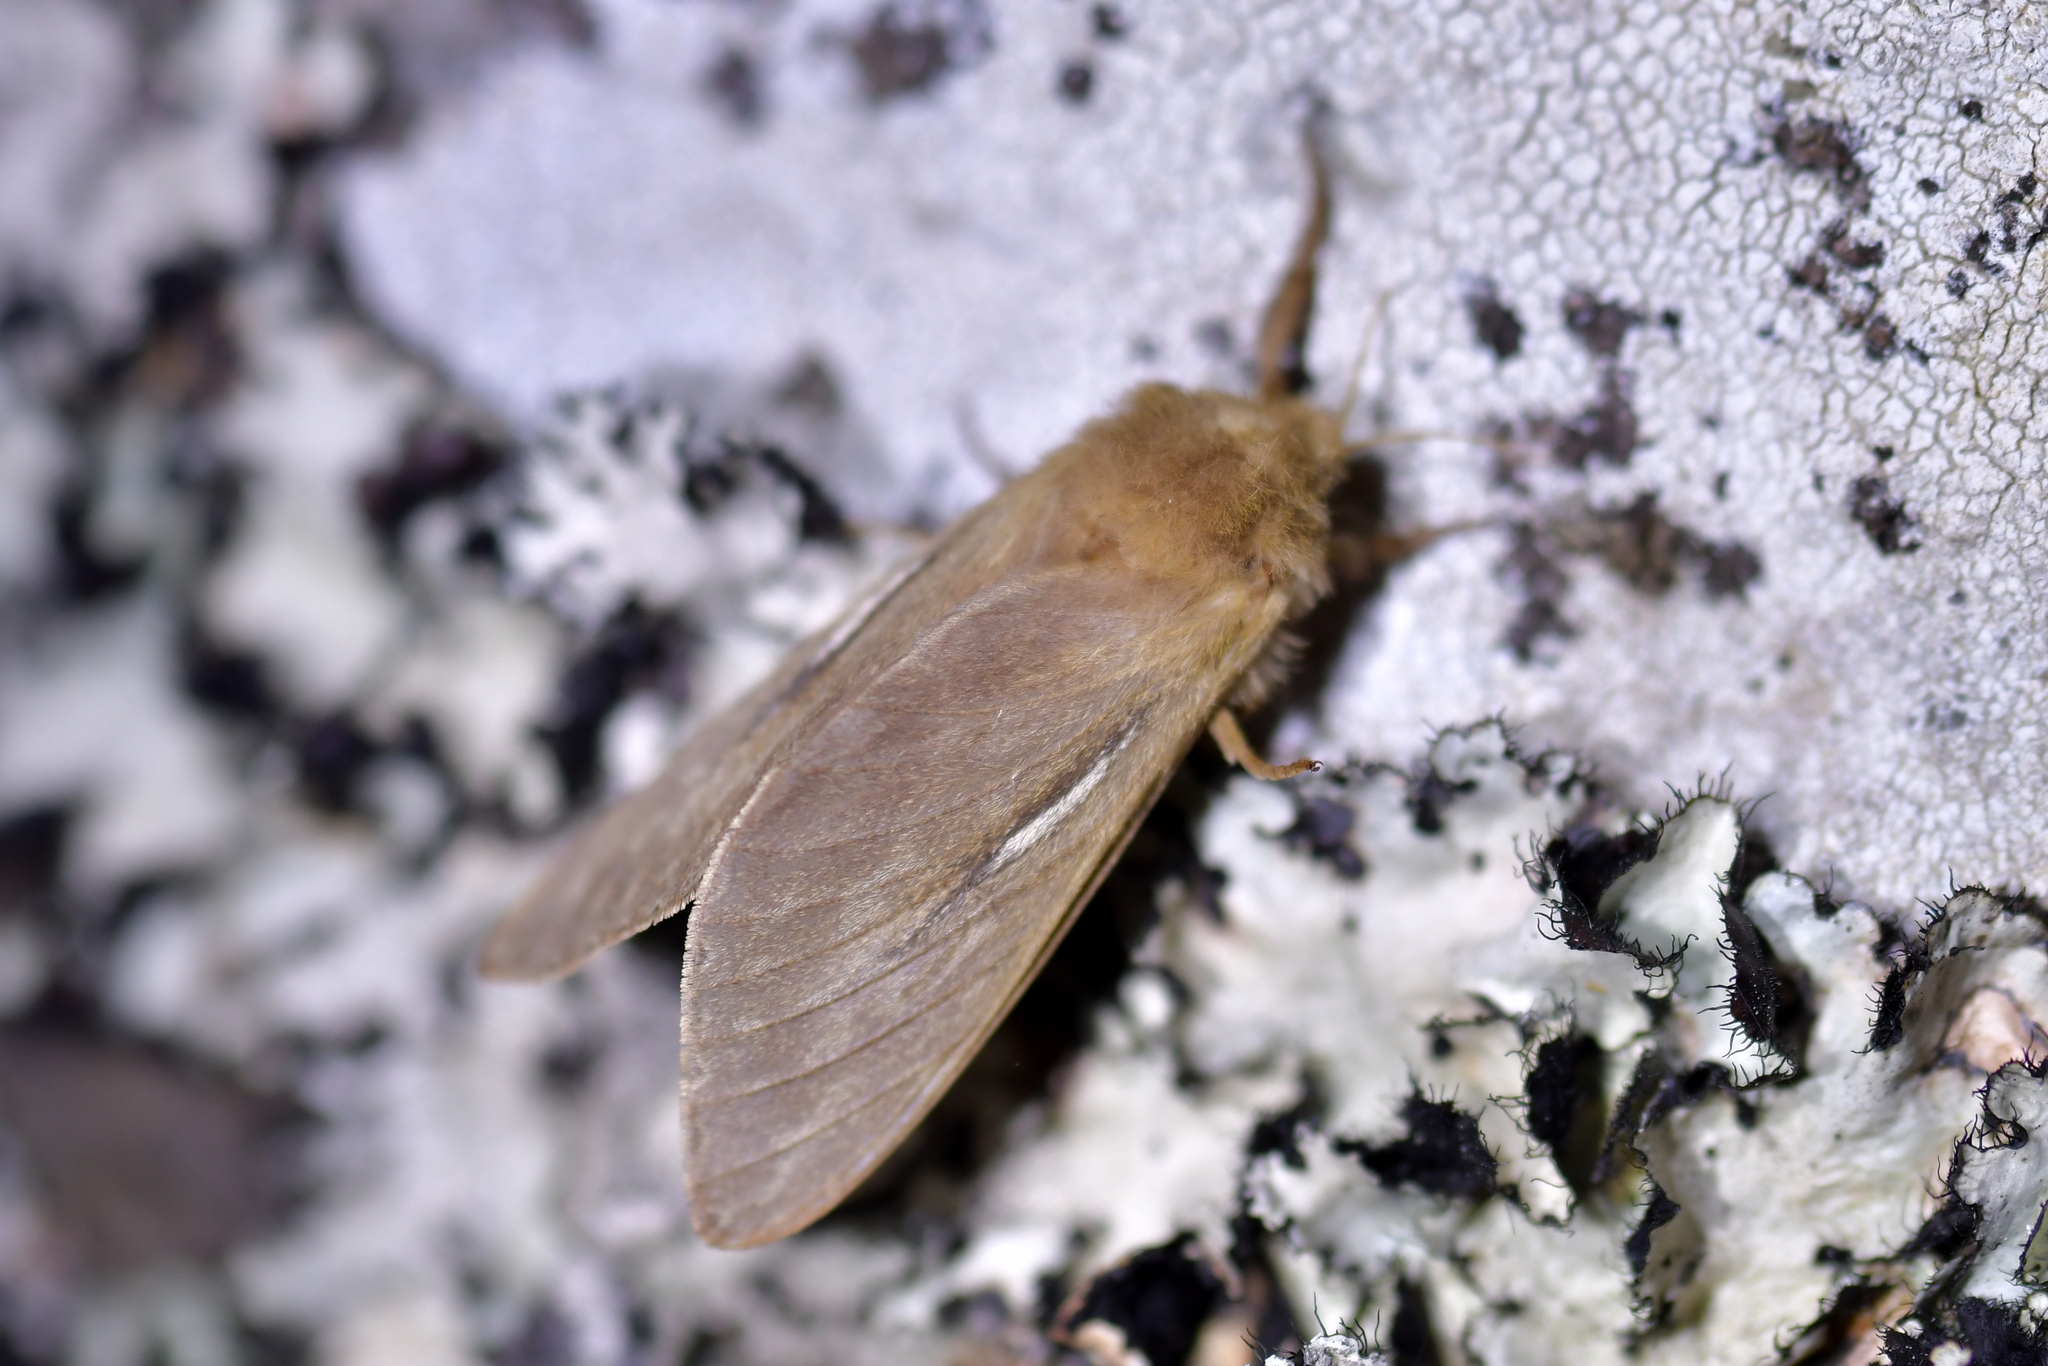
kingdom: Animalia
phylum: Arthropoda
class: Insecta
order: Lepidoptera
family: Hepialidae
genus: Wiseana
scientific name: Wiseana umbraculatus
